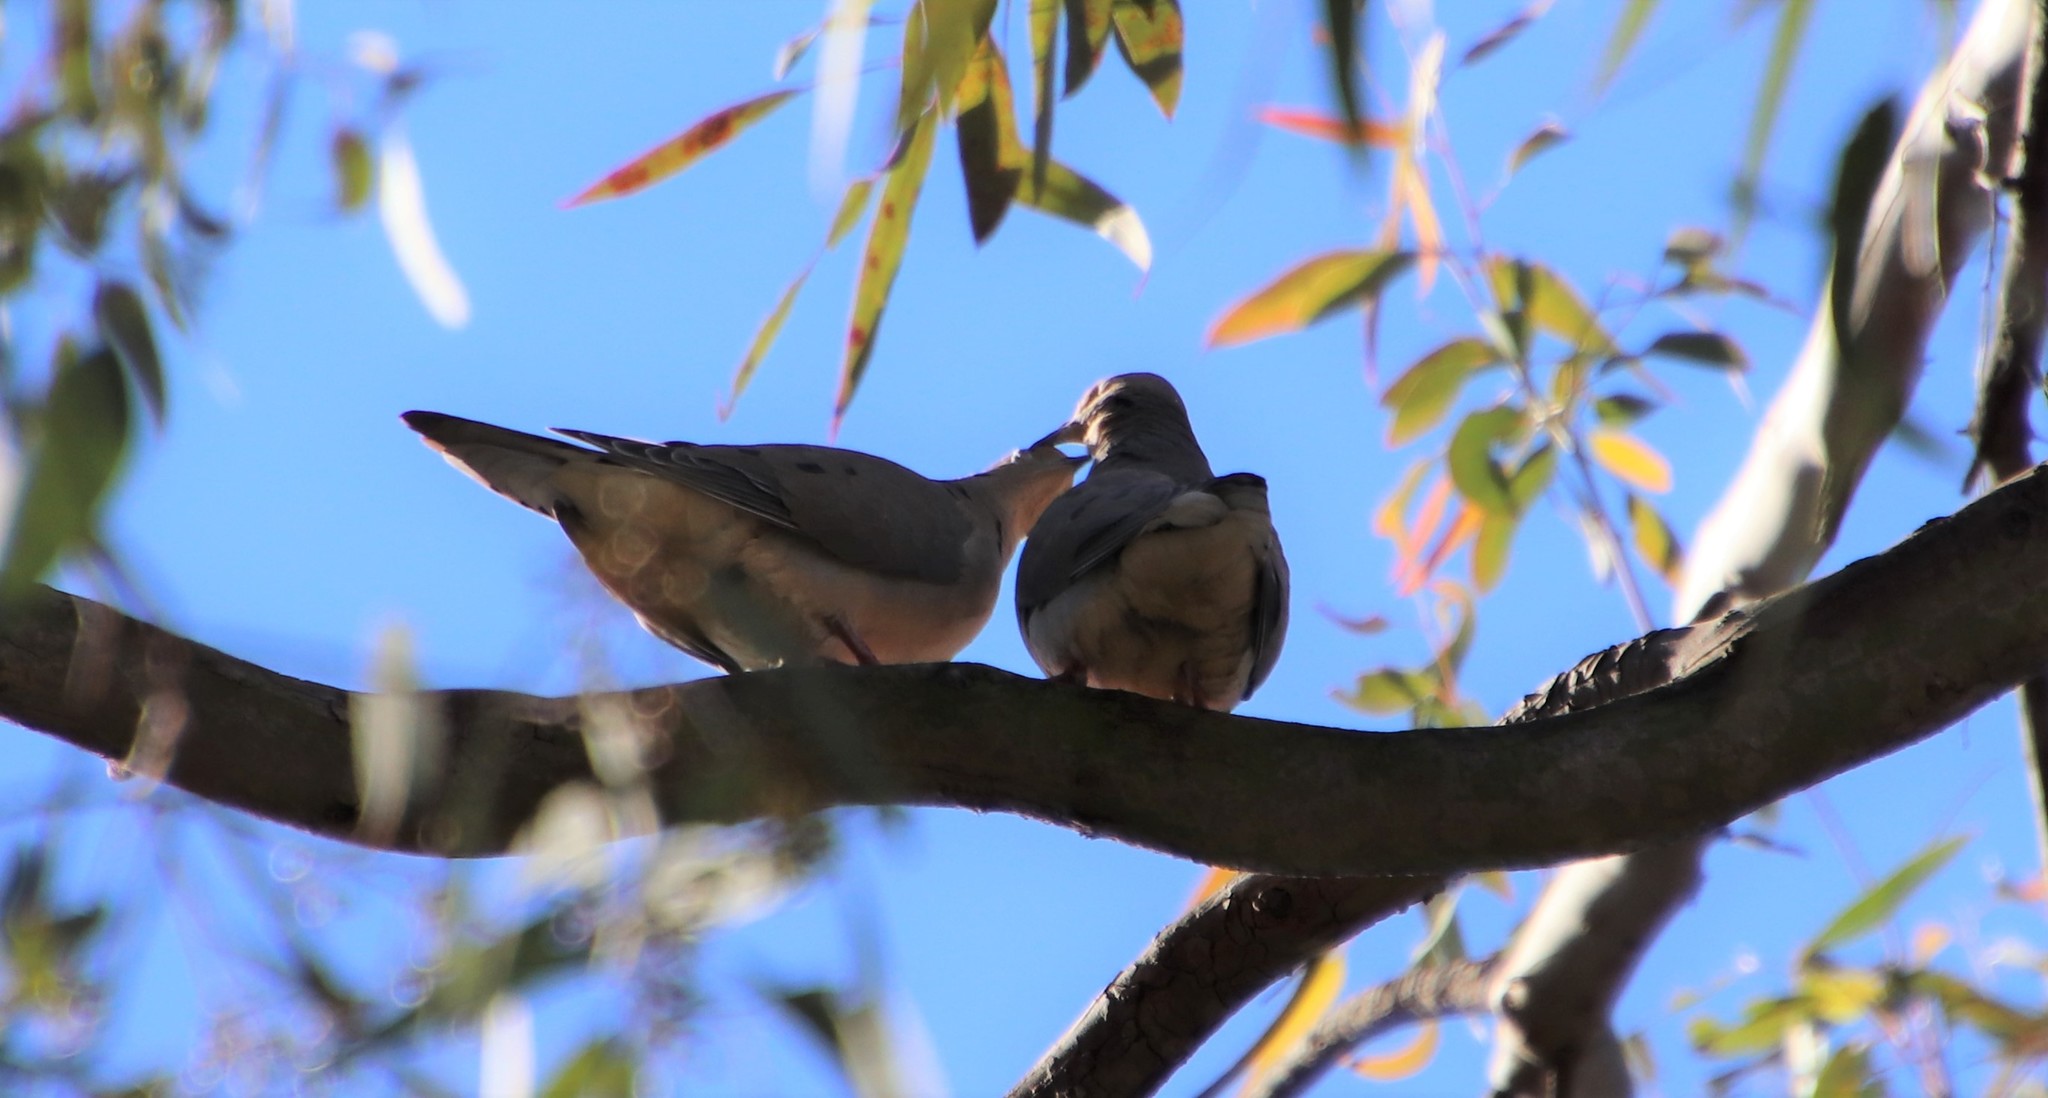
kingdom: Animalia
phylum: Chordata
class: Aves
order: Columbiformes
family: Columbidae
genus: Zenaida
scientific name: Zenaida macroura
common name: Mourning dove
